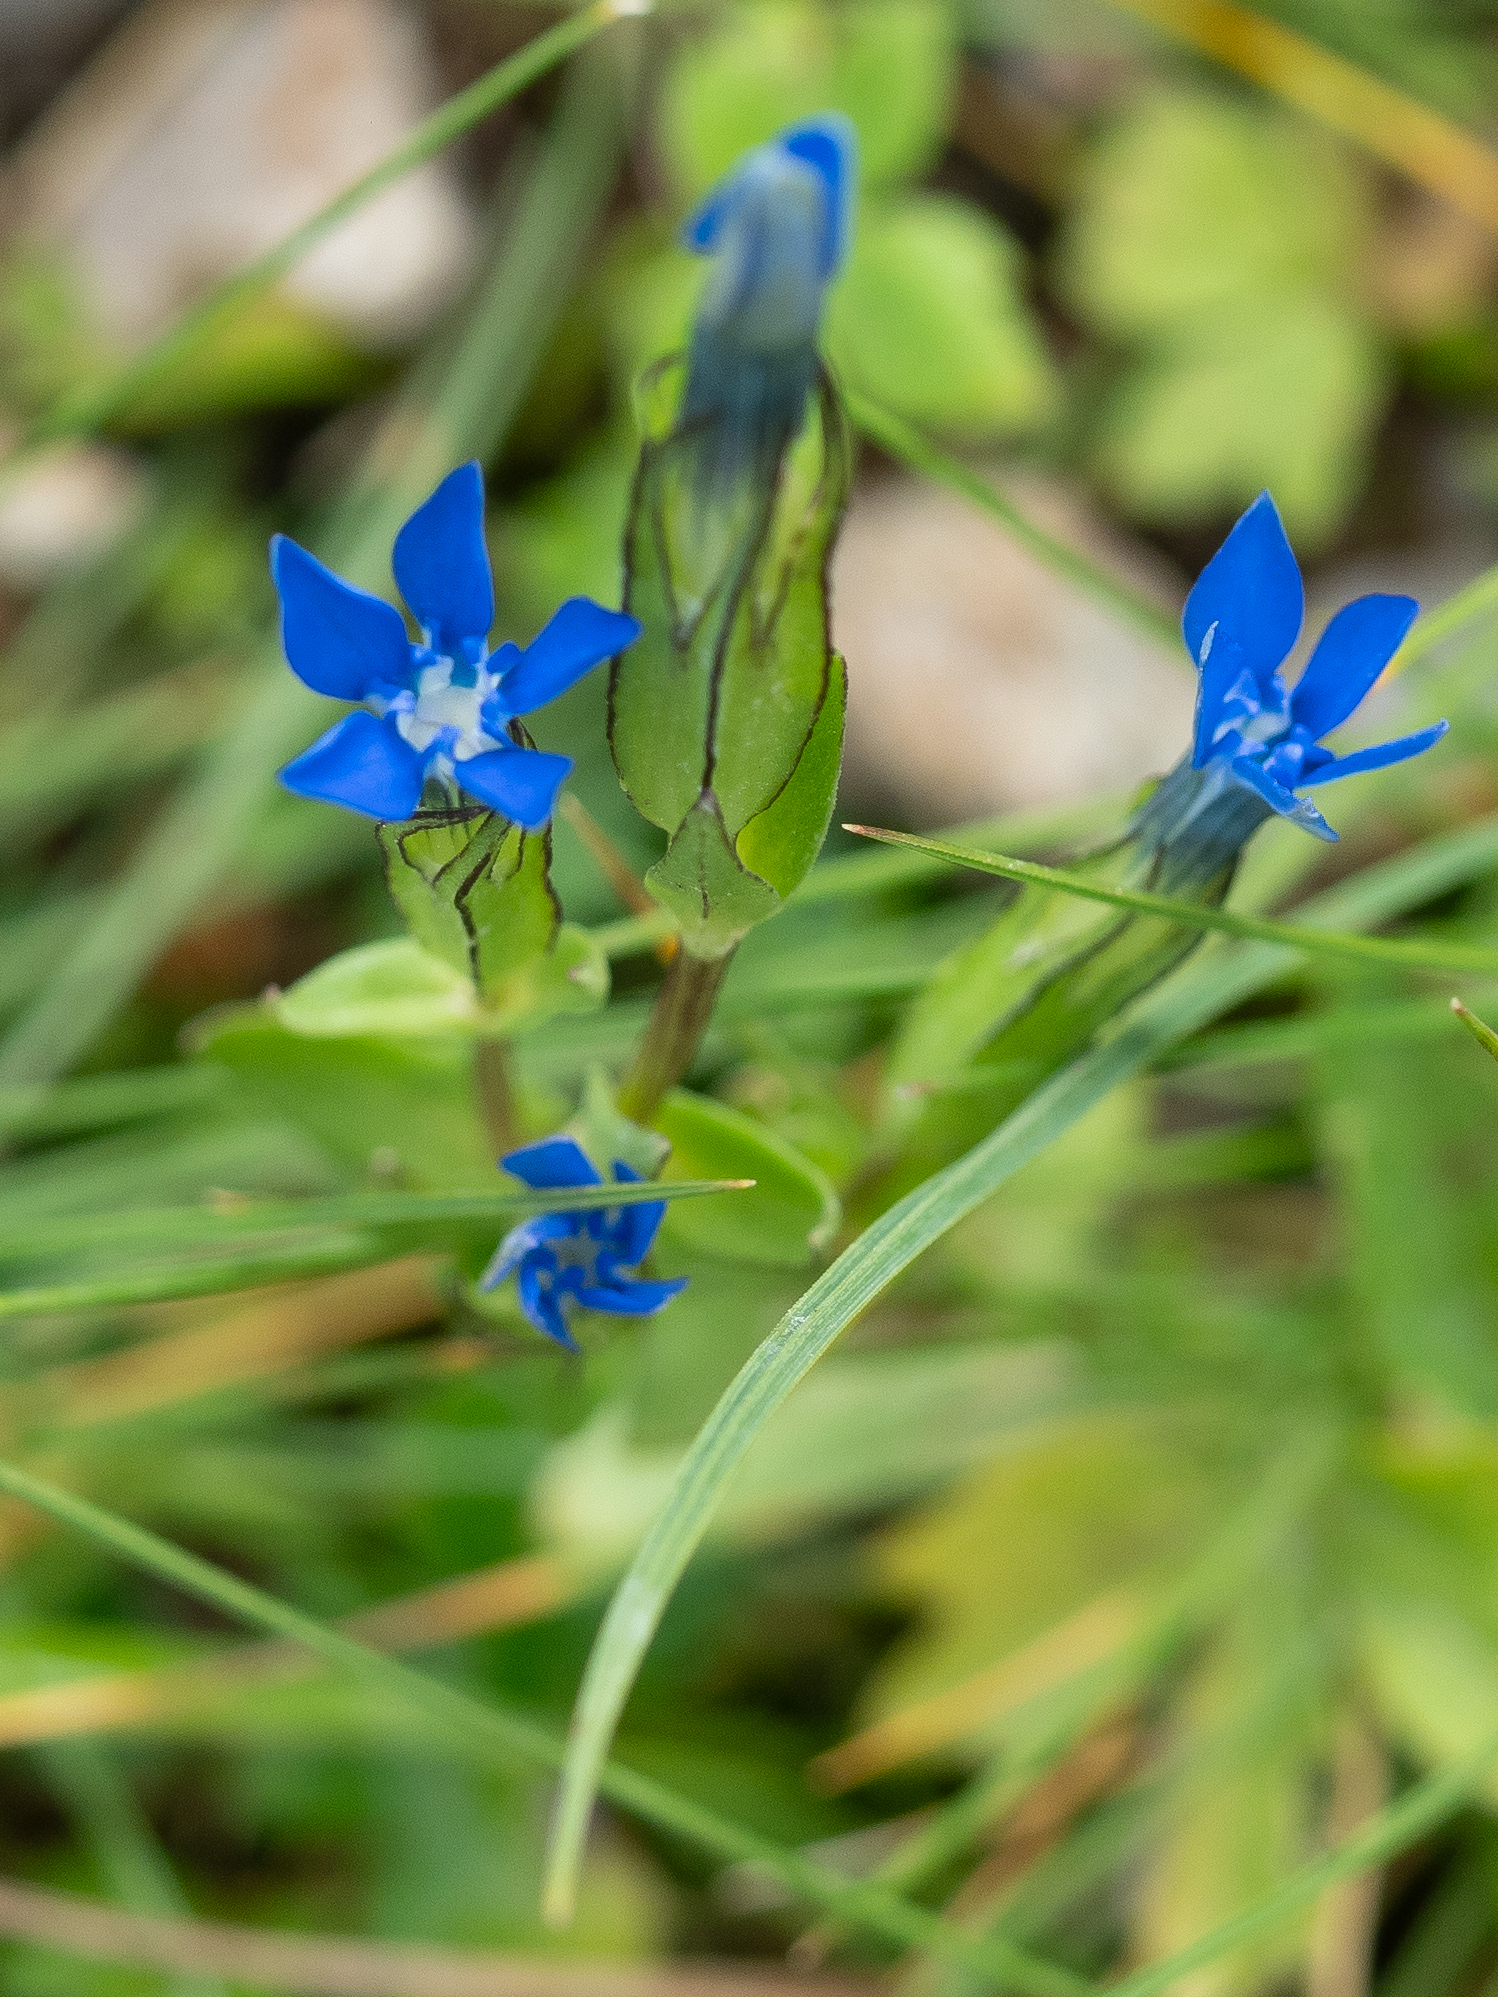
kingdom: Plantae
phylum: Tracheophyta
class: Magnoliopsida
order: Gentianales
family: Gentianaceae
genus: Gentiana
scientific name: Gentiana nivalis
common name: Alpine gentian
